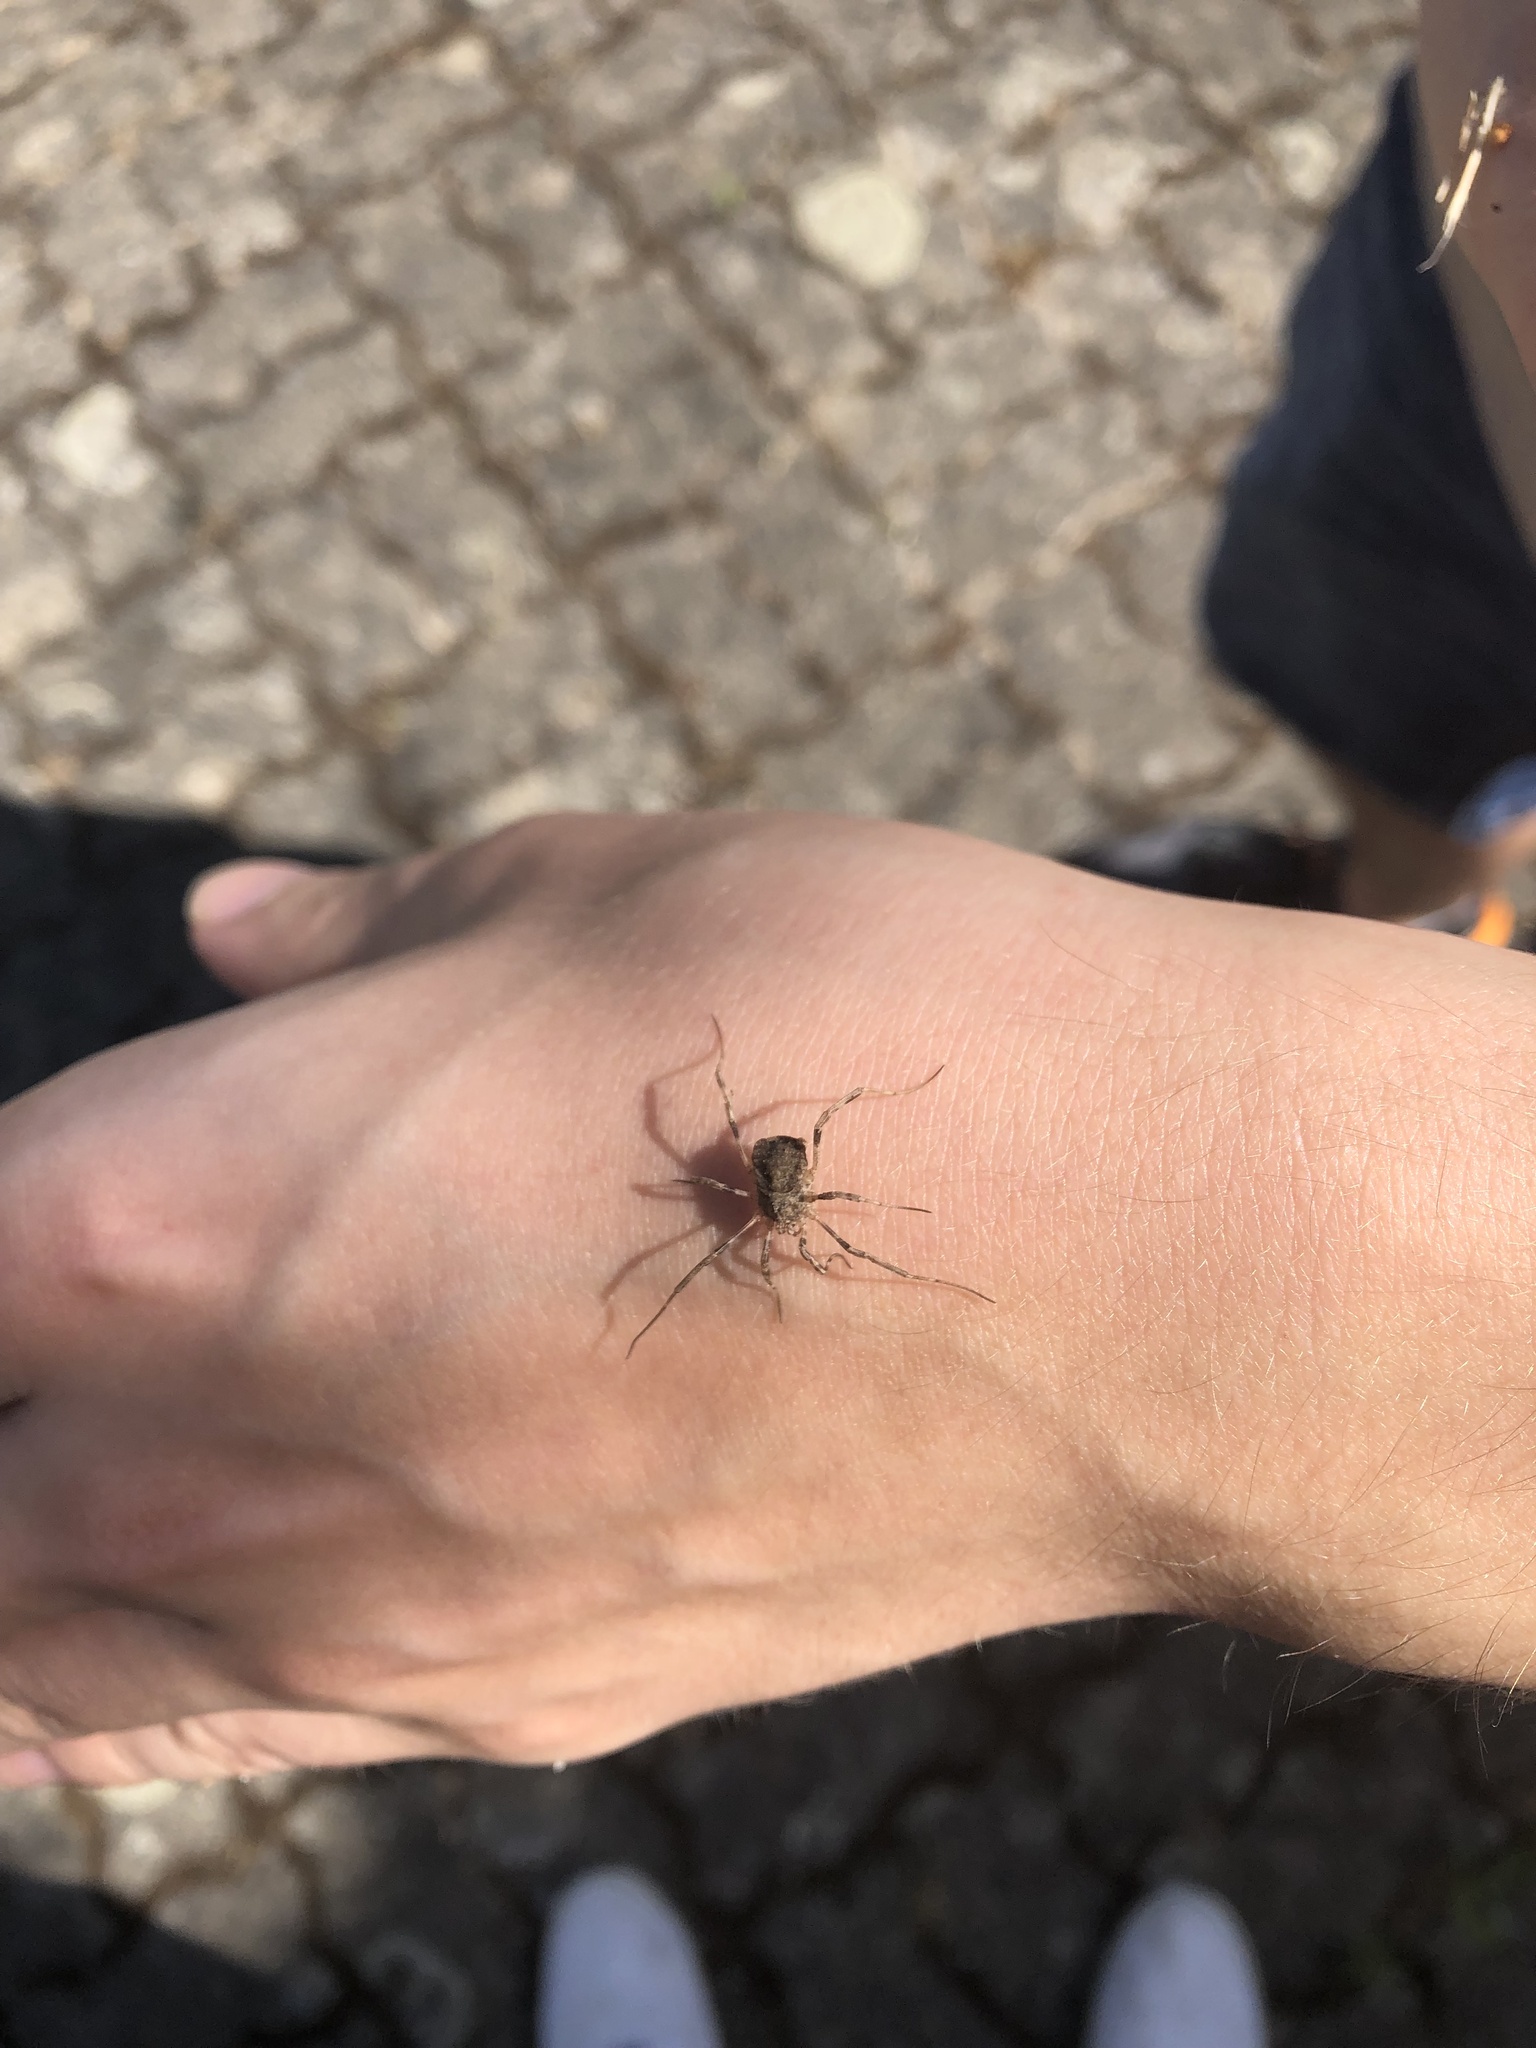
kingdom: Animalia
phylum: Arthropoda
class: Arachnida
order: Opiliones
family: Phalangiidae
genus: Odiellus
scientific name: Odiellus spinosus
